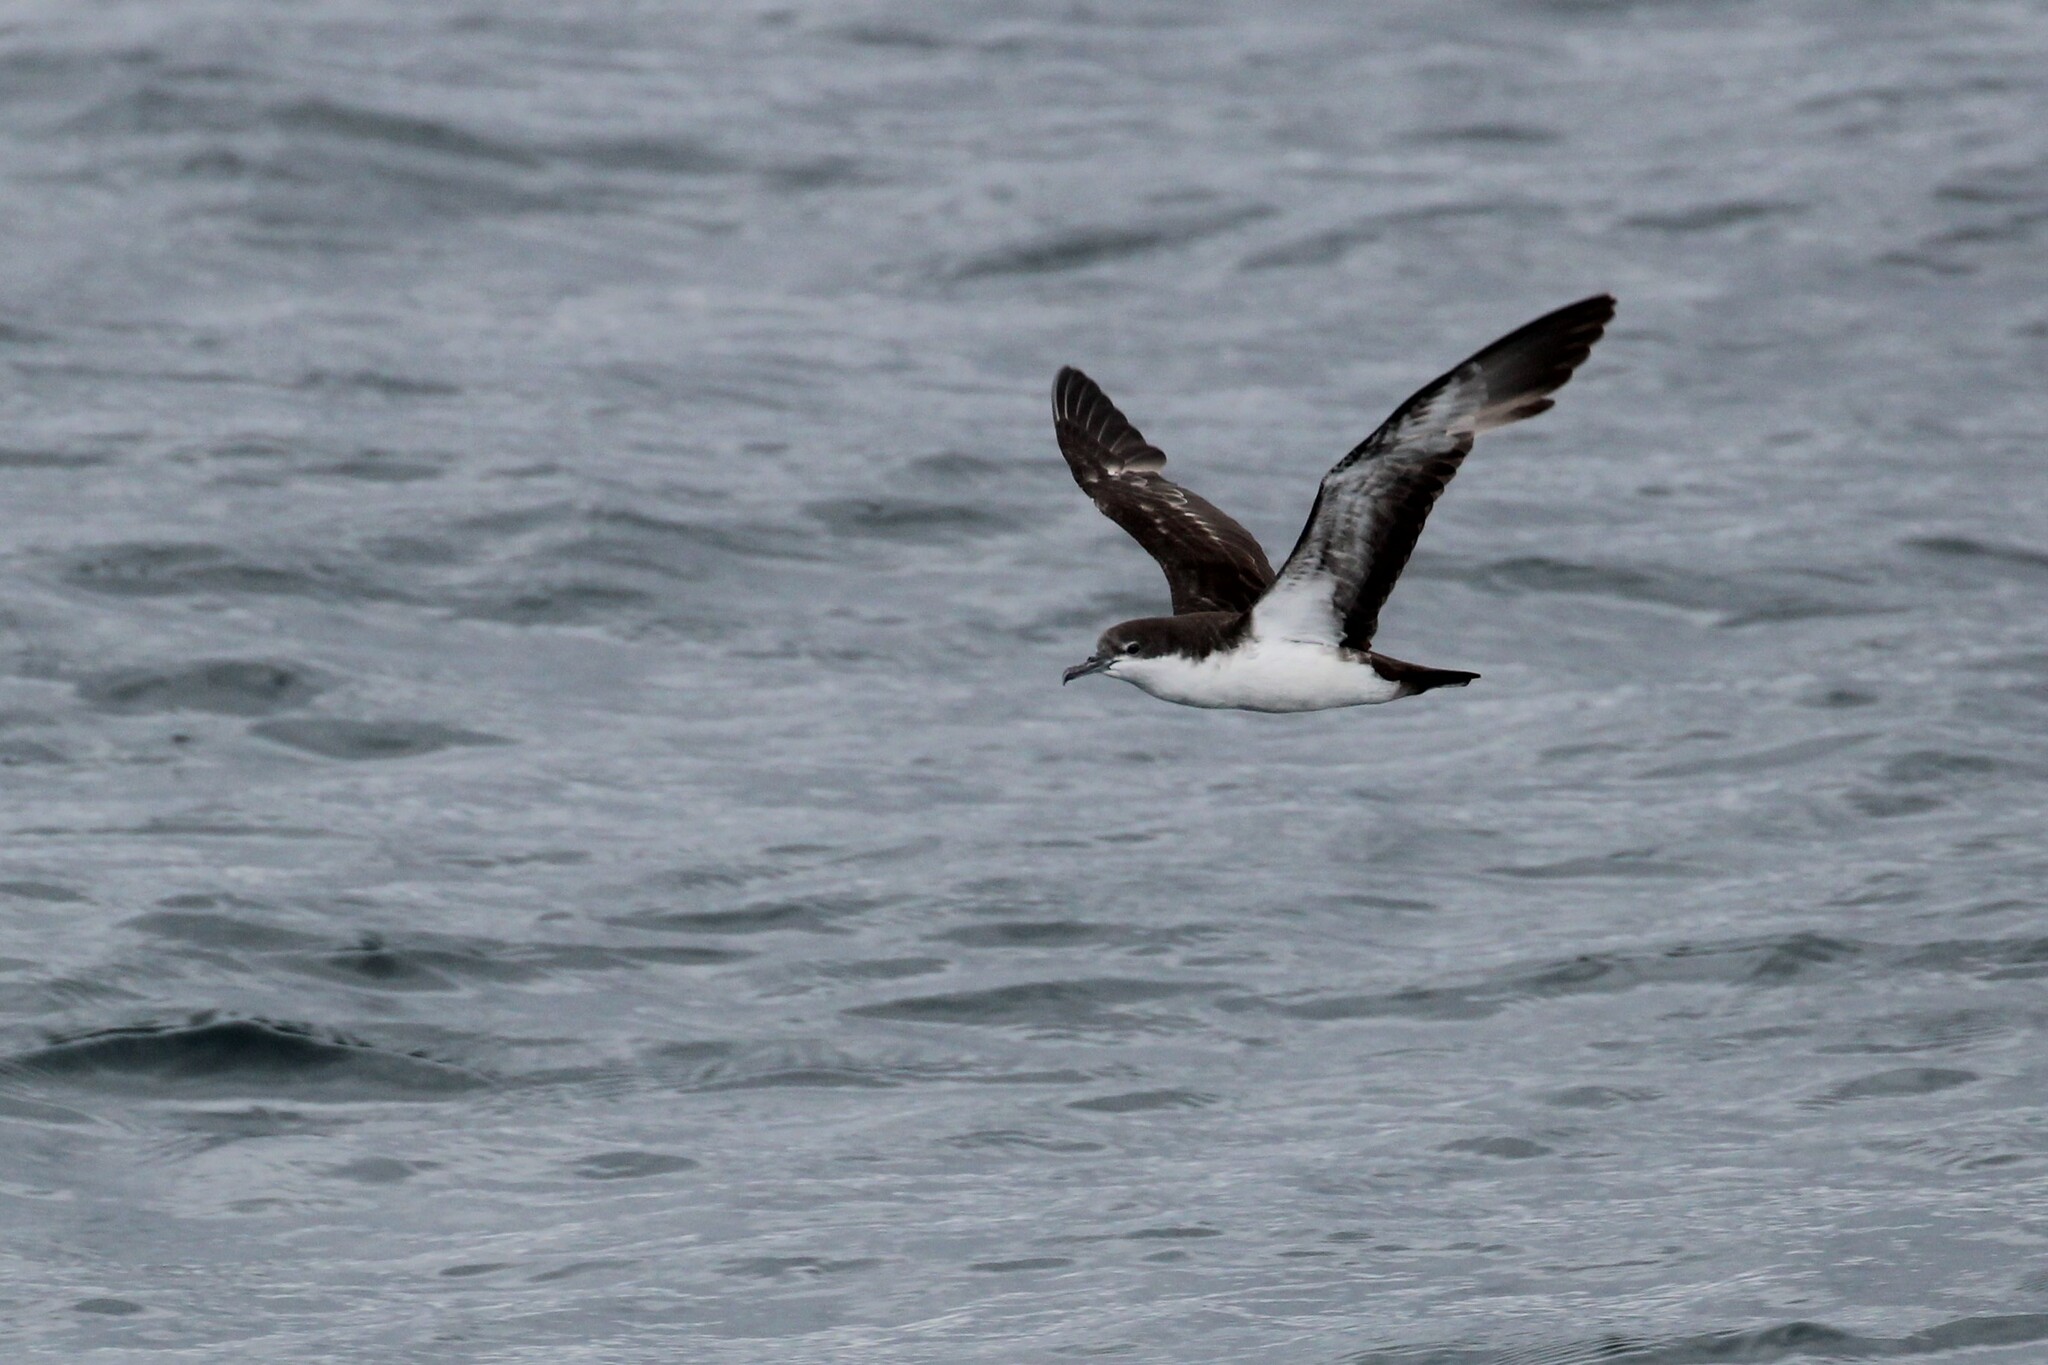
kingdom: Animalia
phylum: Chordata
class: Aves
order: Procellariiformes
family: Procellariidae
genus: Puffinus
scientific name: Puffinus subalaris
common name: Galapagos shearwater
